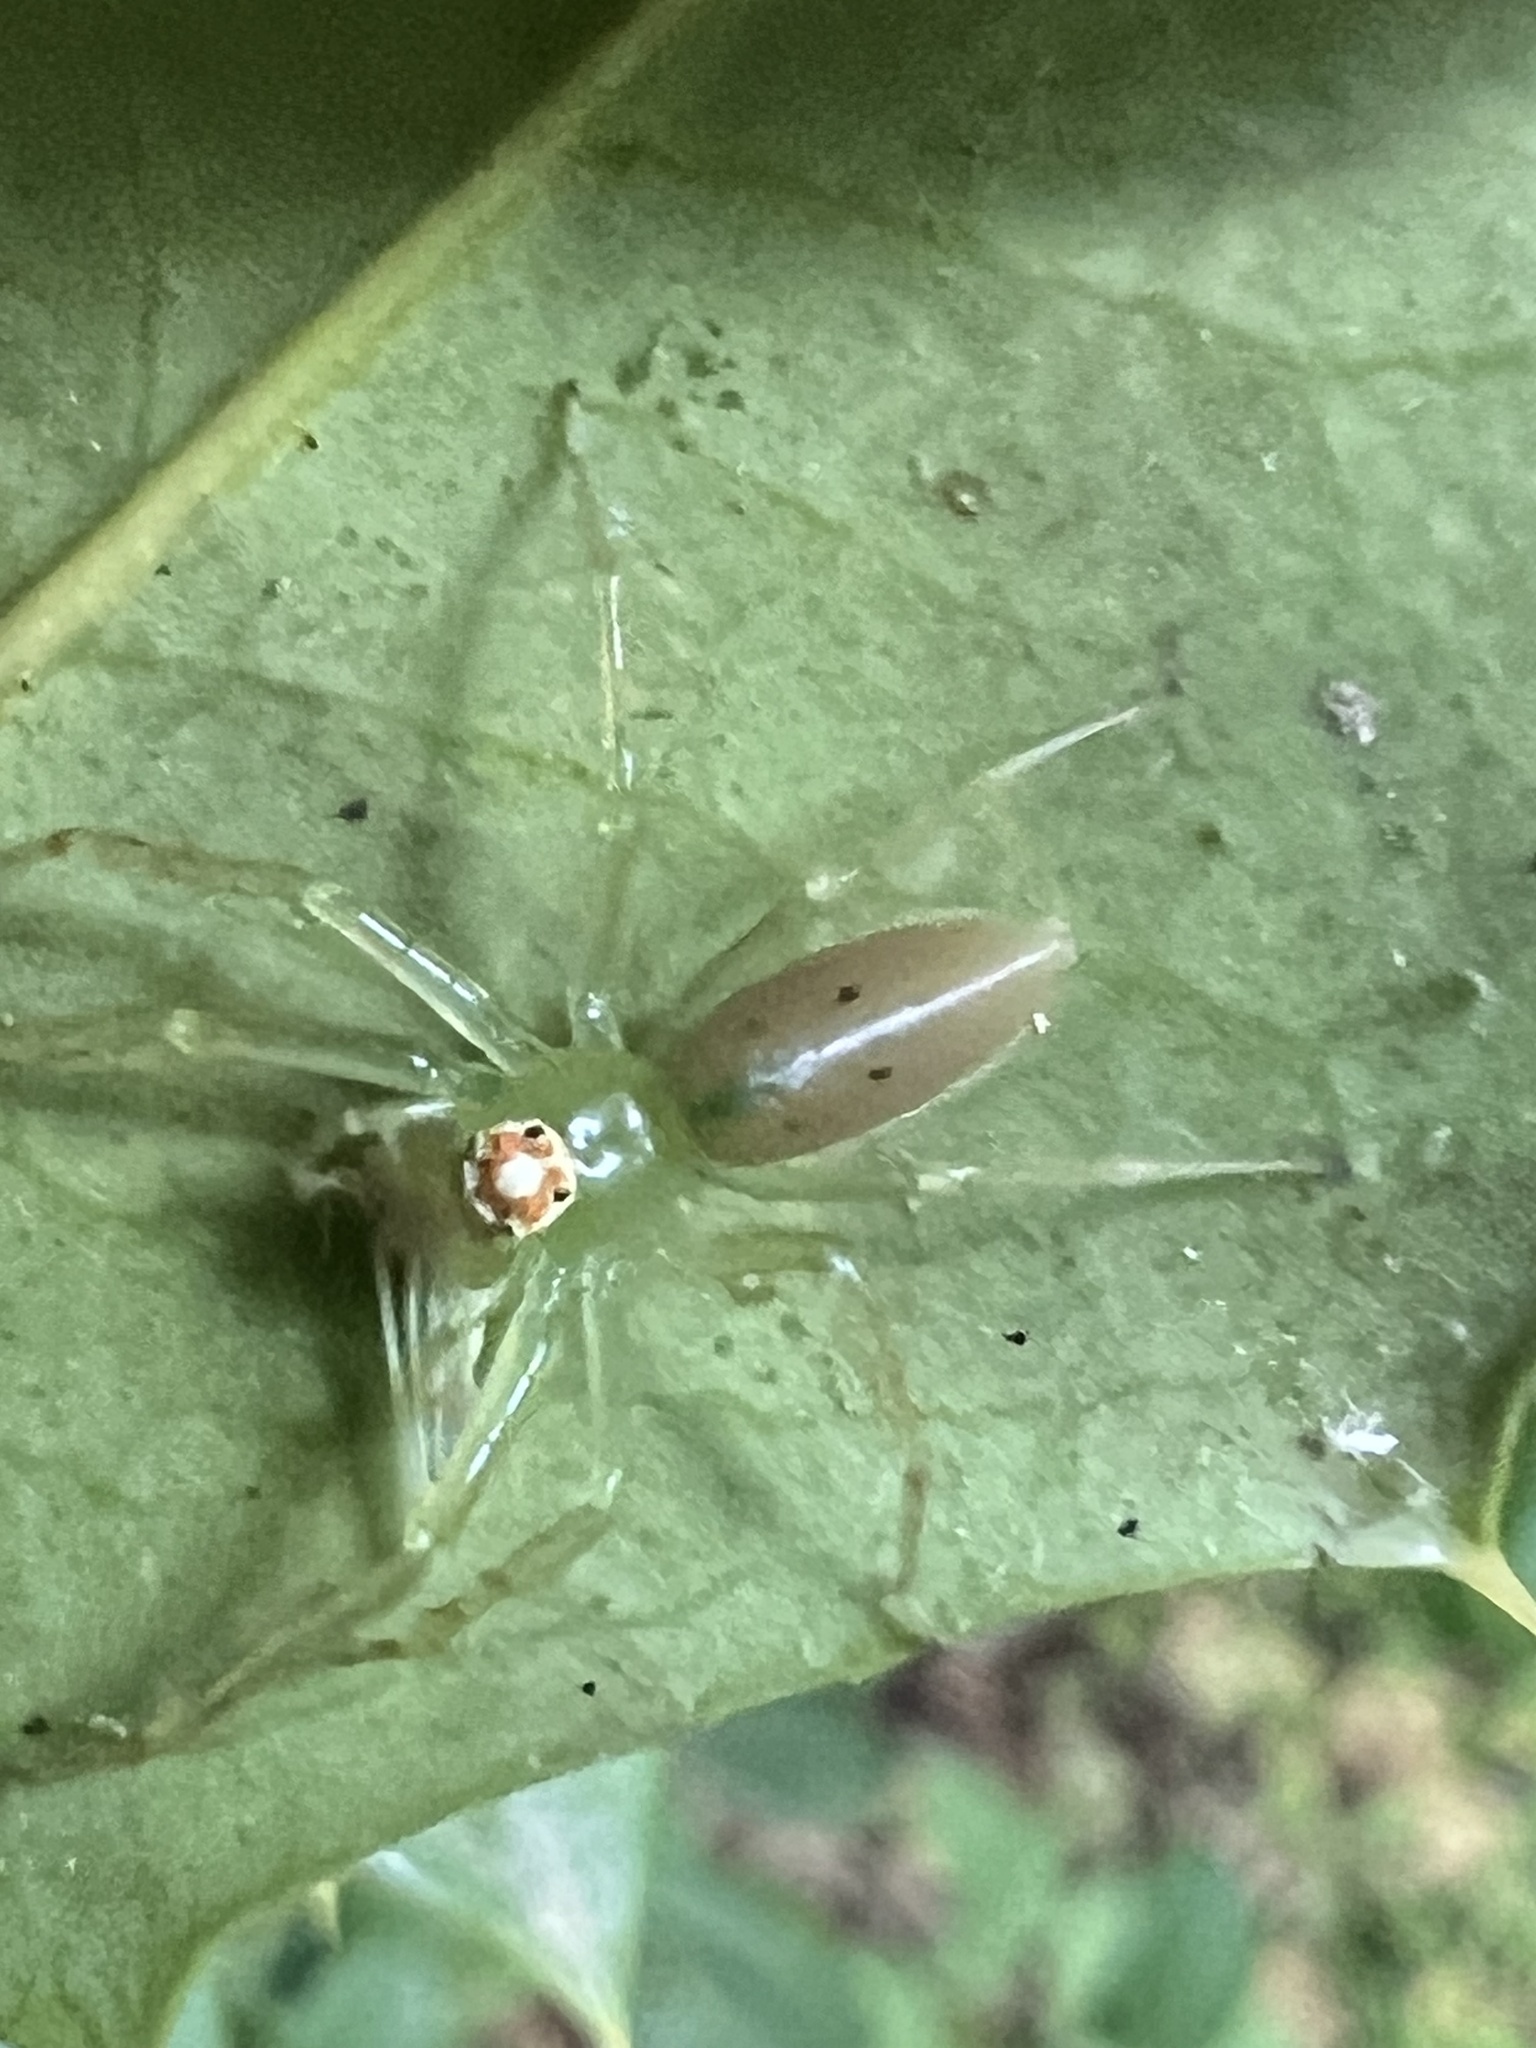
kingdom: Animalia
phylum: Arthropoda
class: Arachnida
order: Araneae
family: Salticidae
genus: Lyssomanes
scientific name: Lyssomanes viridis
